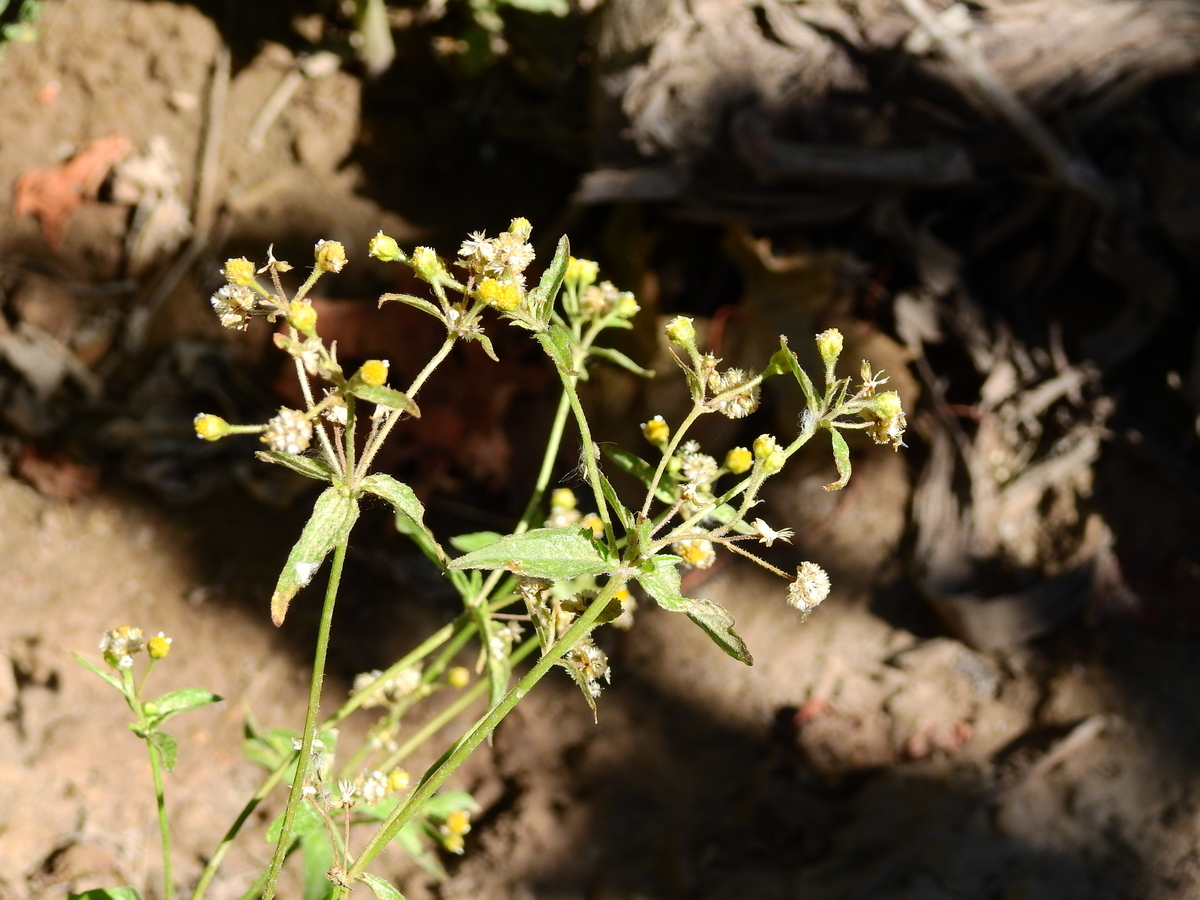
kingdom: Plantae
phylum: Tracheophyta
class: Magnoliopsida
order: Asterales
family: Asteraceae
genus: Galinsoga
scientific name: Galinsoga parviflora
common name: Gallant soldier
